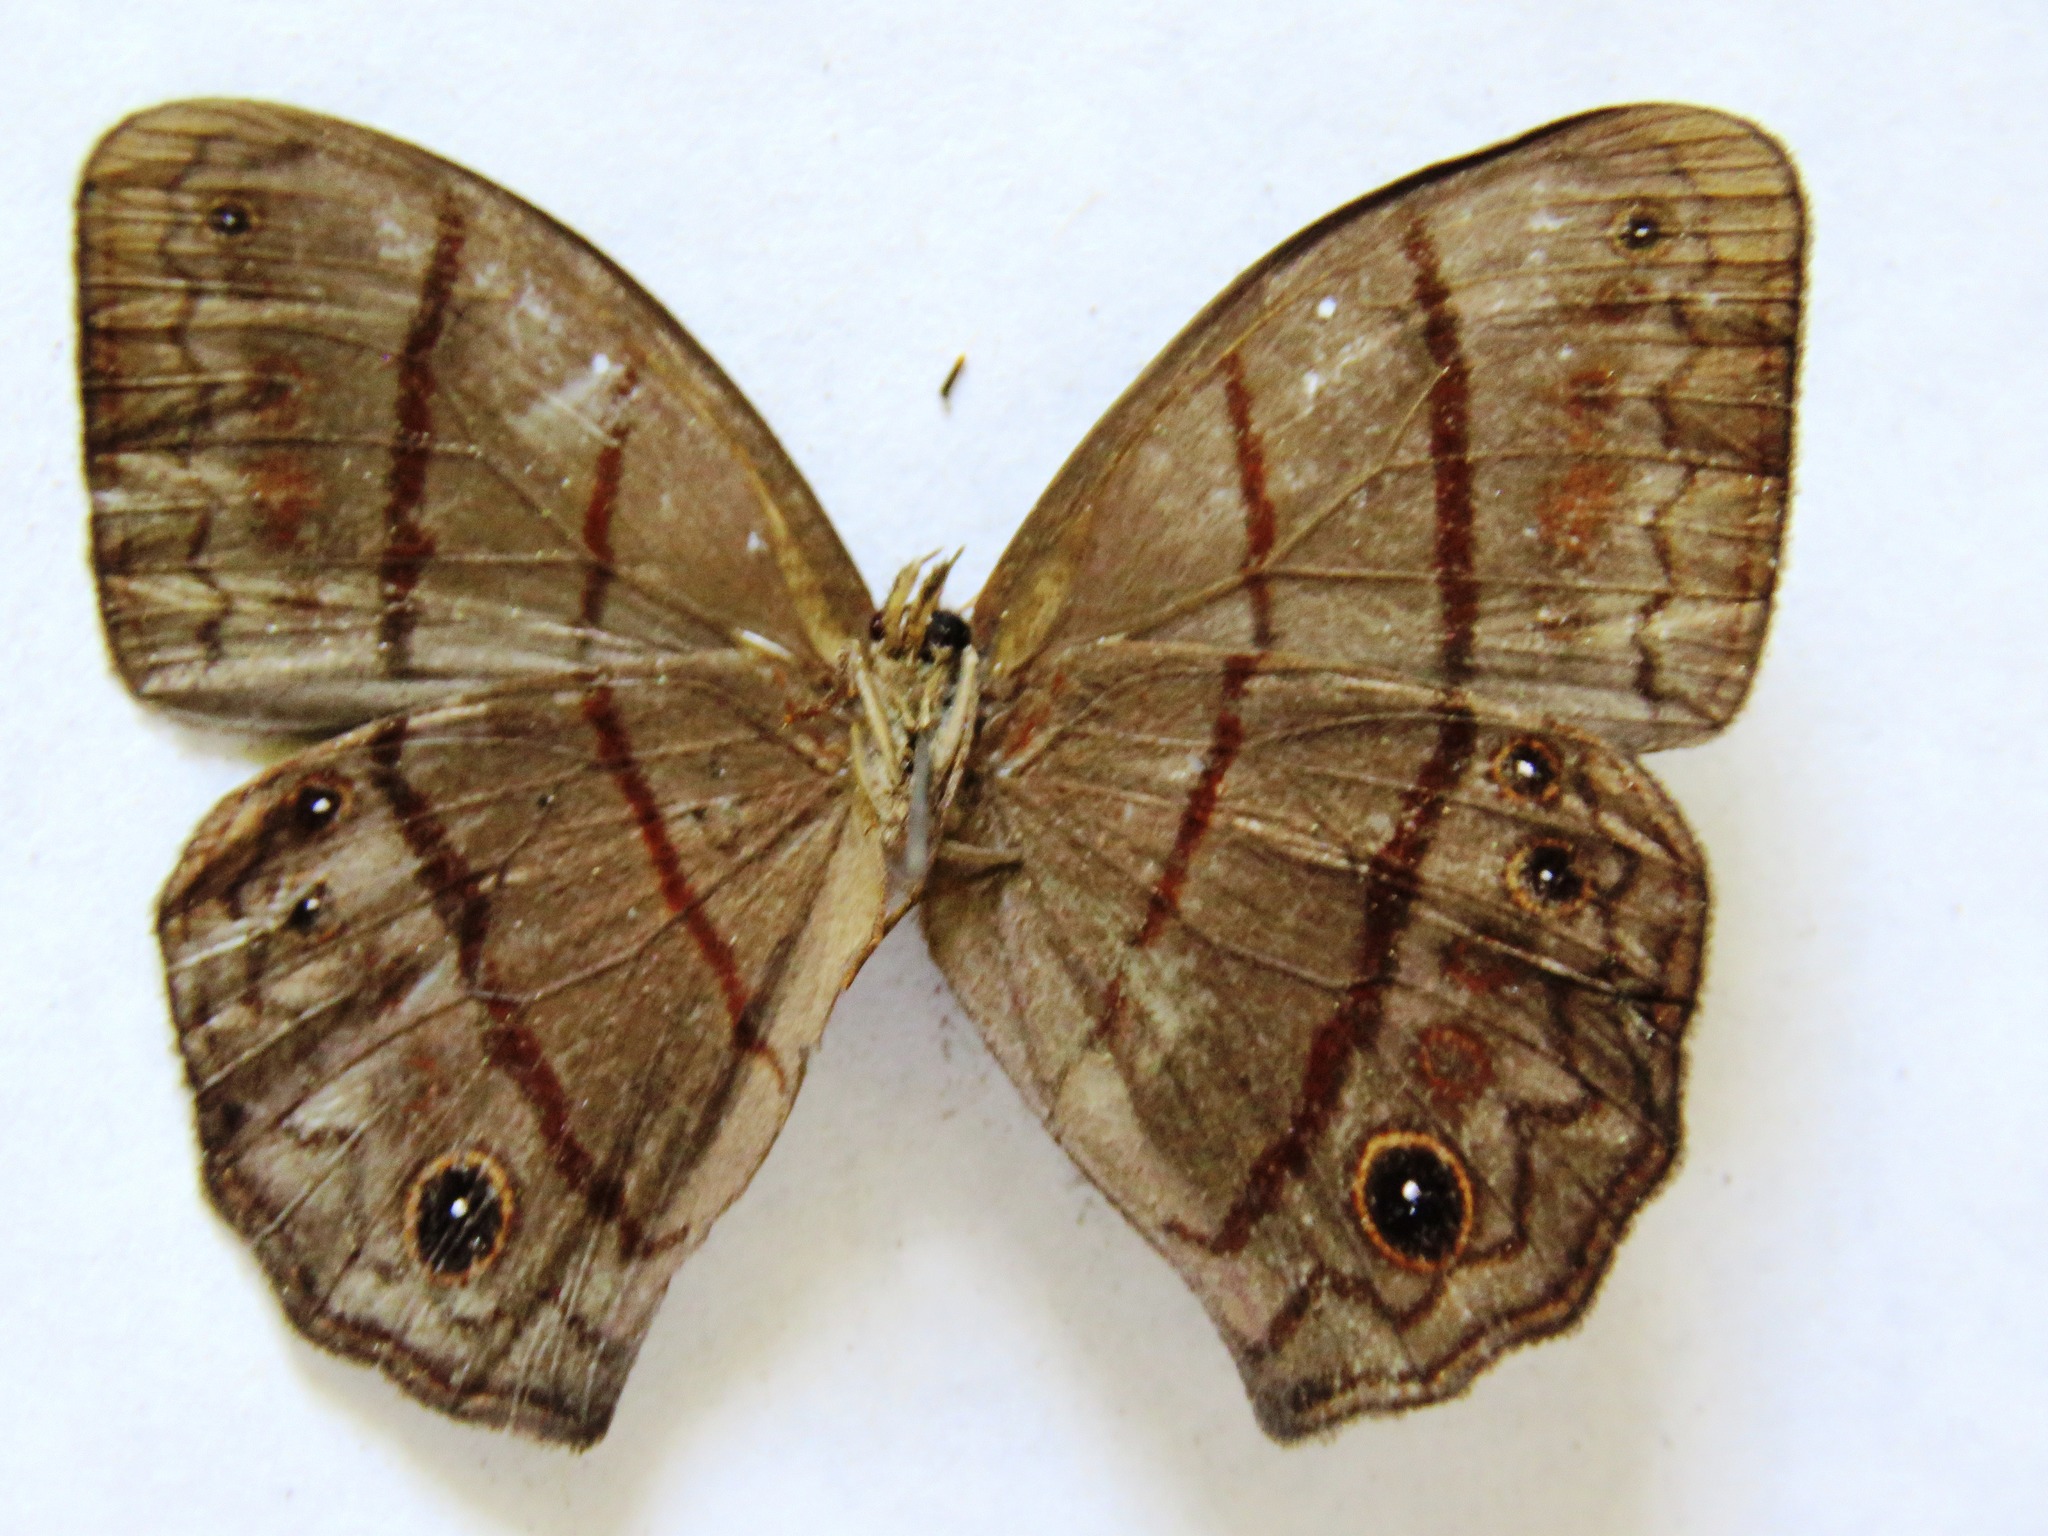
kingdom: Animalia
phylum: Arthropoda
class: Insecta
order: Lepidoptera
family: Nymphalidae
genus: Satyrotaygetis
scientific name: Satyrotaygetis satyrina
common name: Wide-bordered satyr
